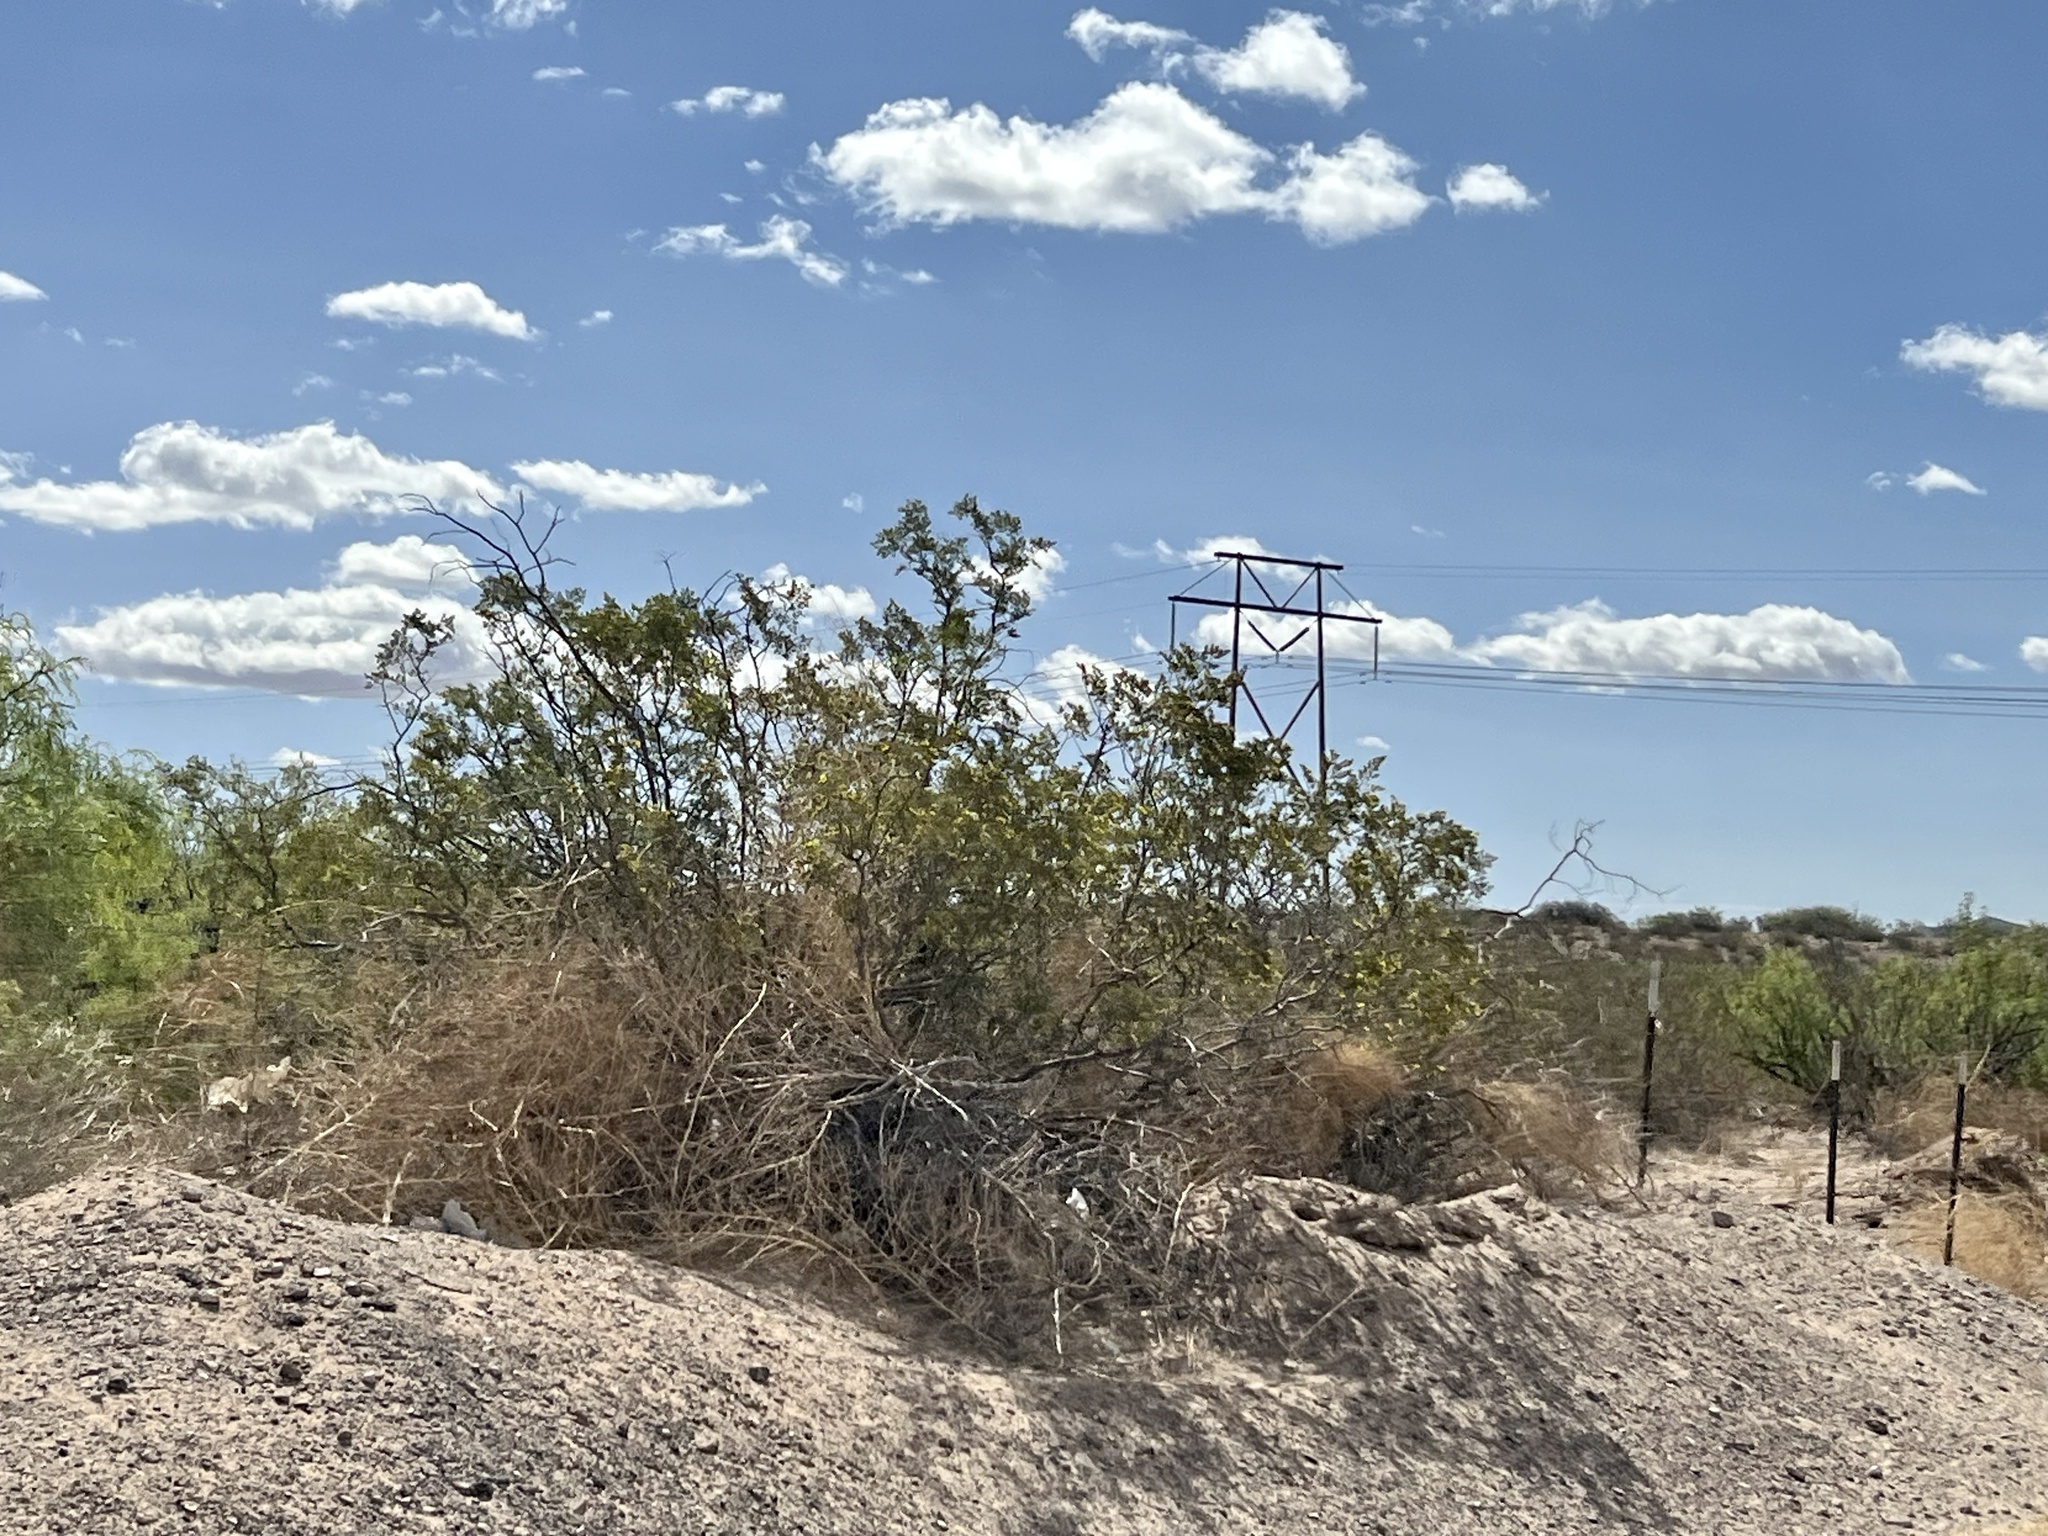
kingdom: Plantae
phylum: Tracheophyta
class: Magnoliopsida
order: Zygophyllales
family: Zygophyllaceae
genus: Larrea
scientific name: Larrea tridentata
